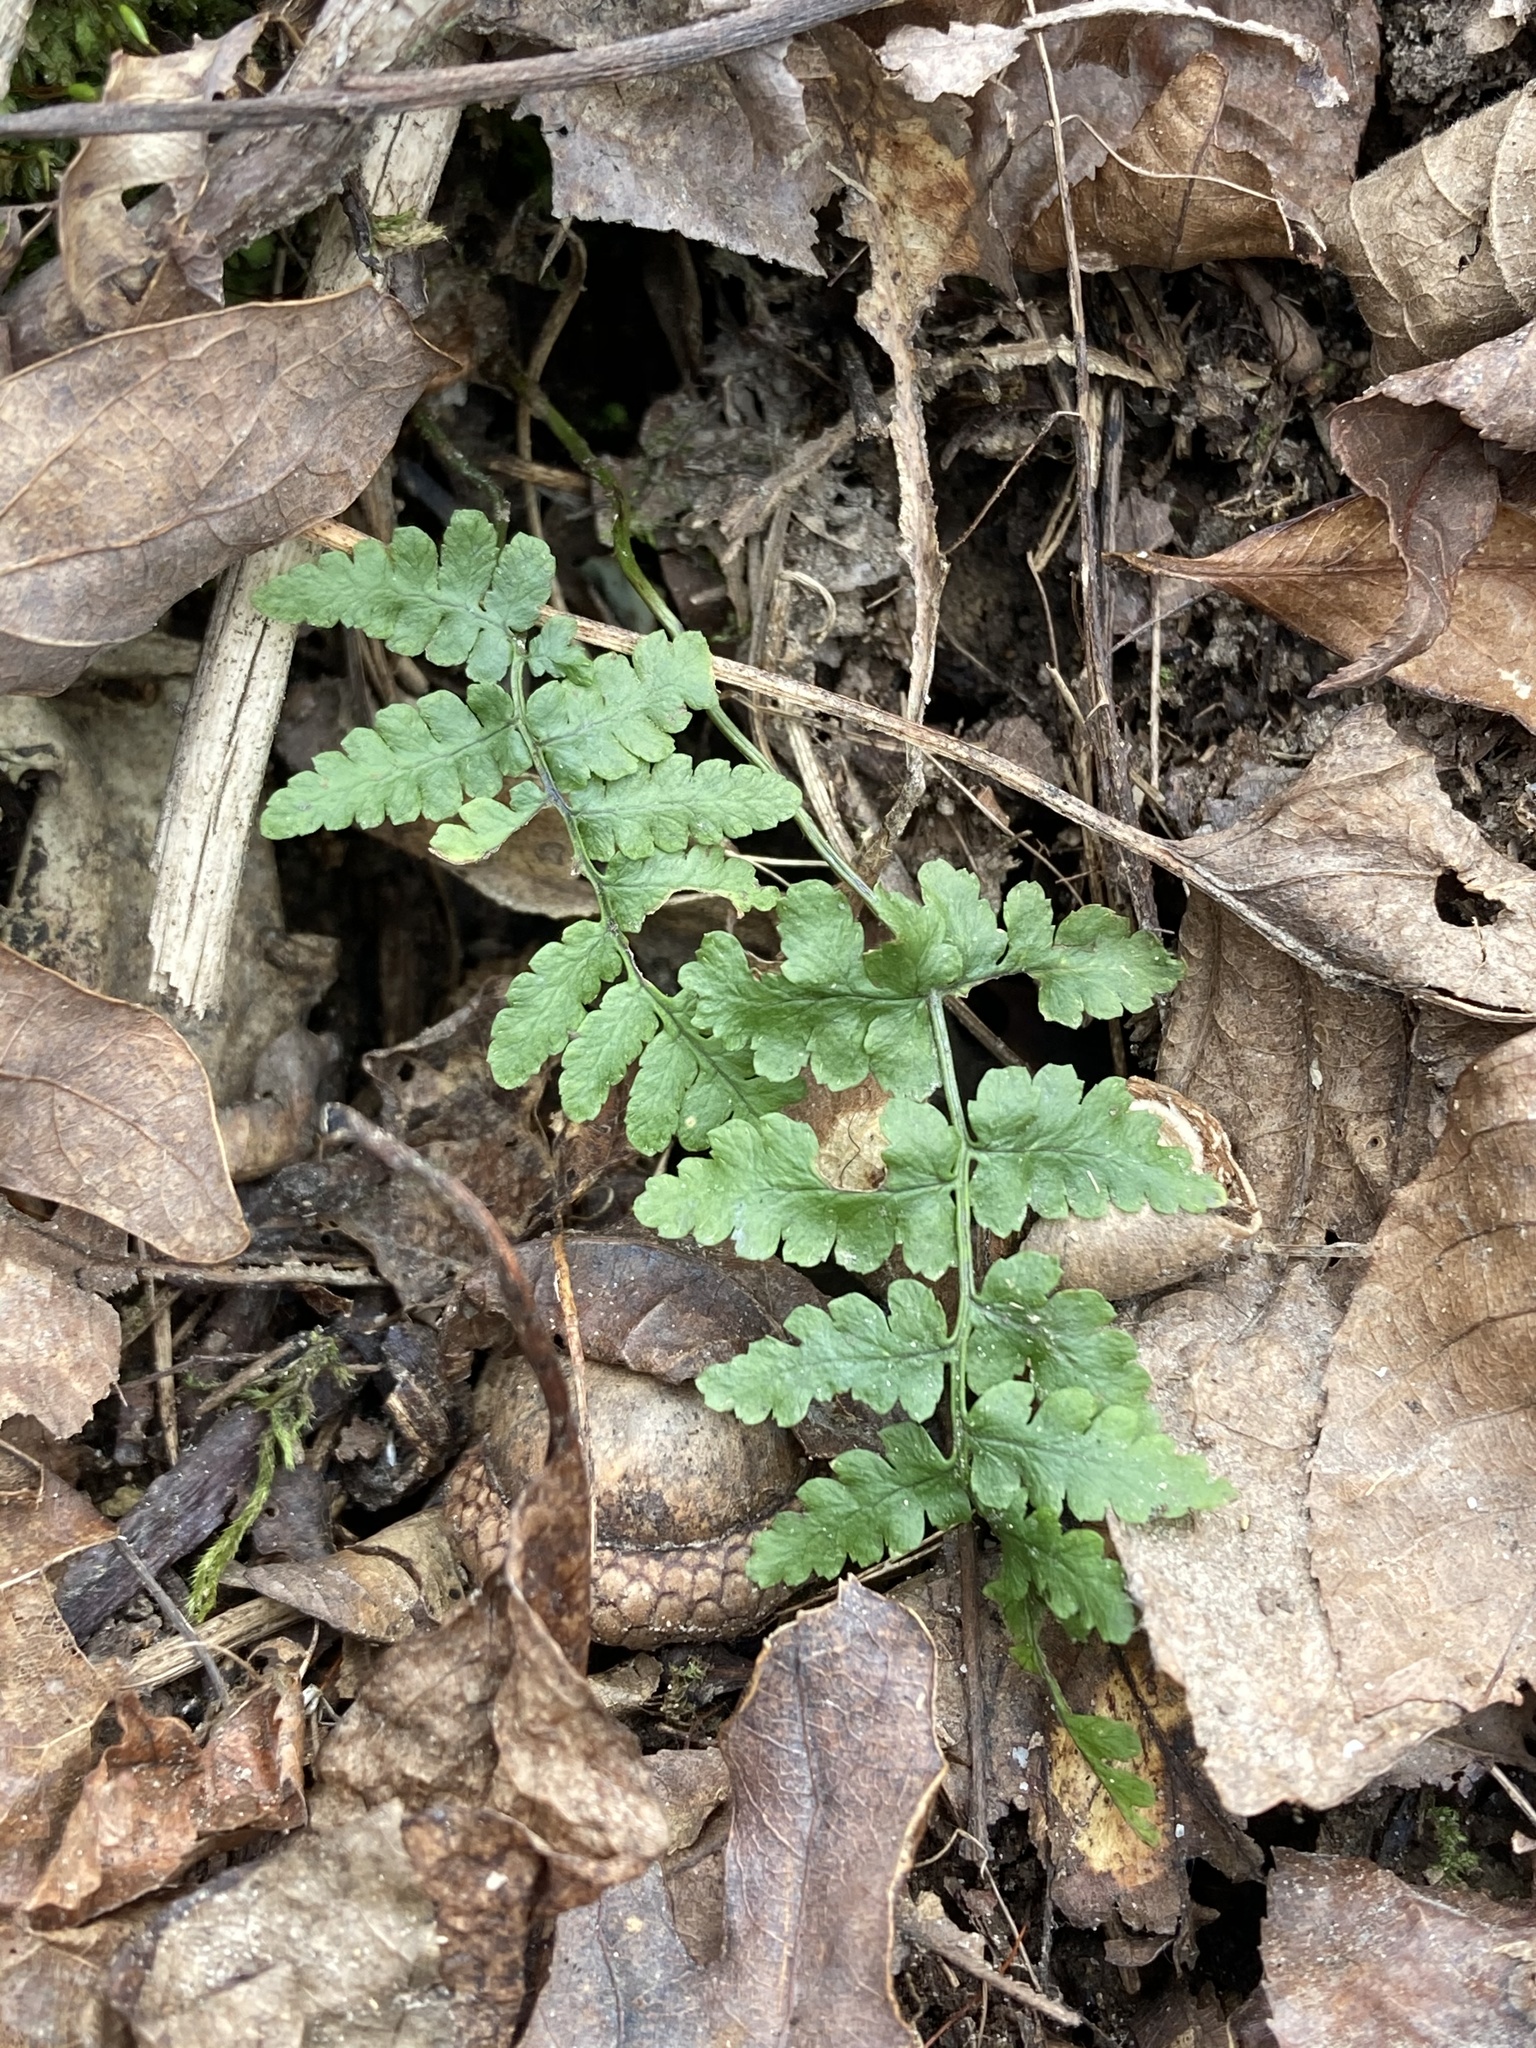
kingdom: Plantae
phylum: Tracheophyta
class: Polypodiopsida
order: Polypodiales
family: Woodsiaceae
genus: Physematium
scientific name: Physematium obtusum
